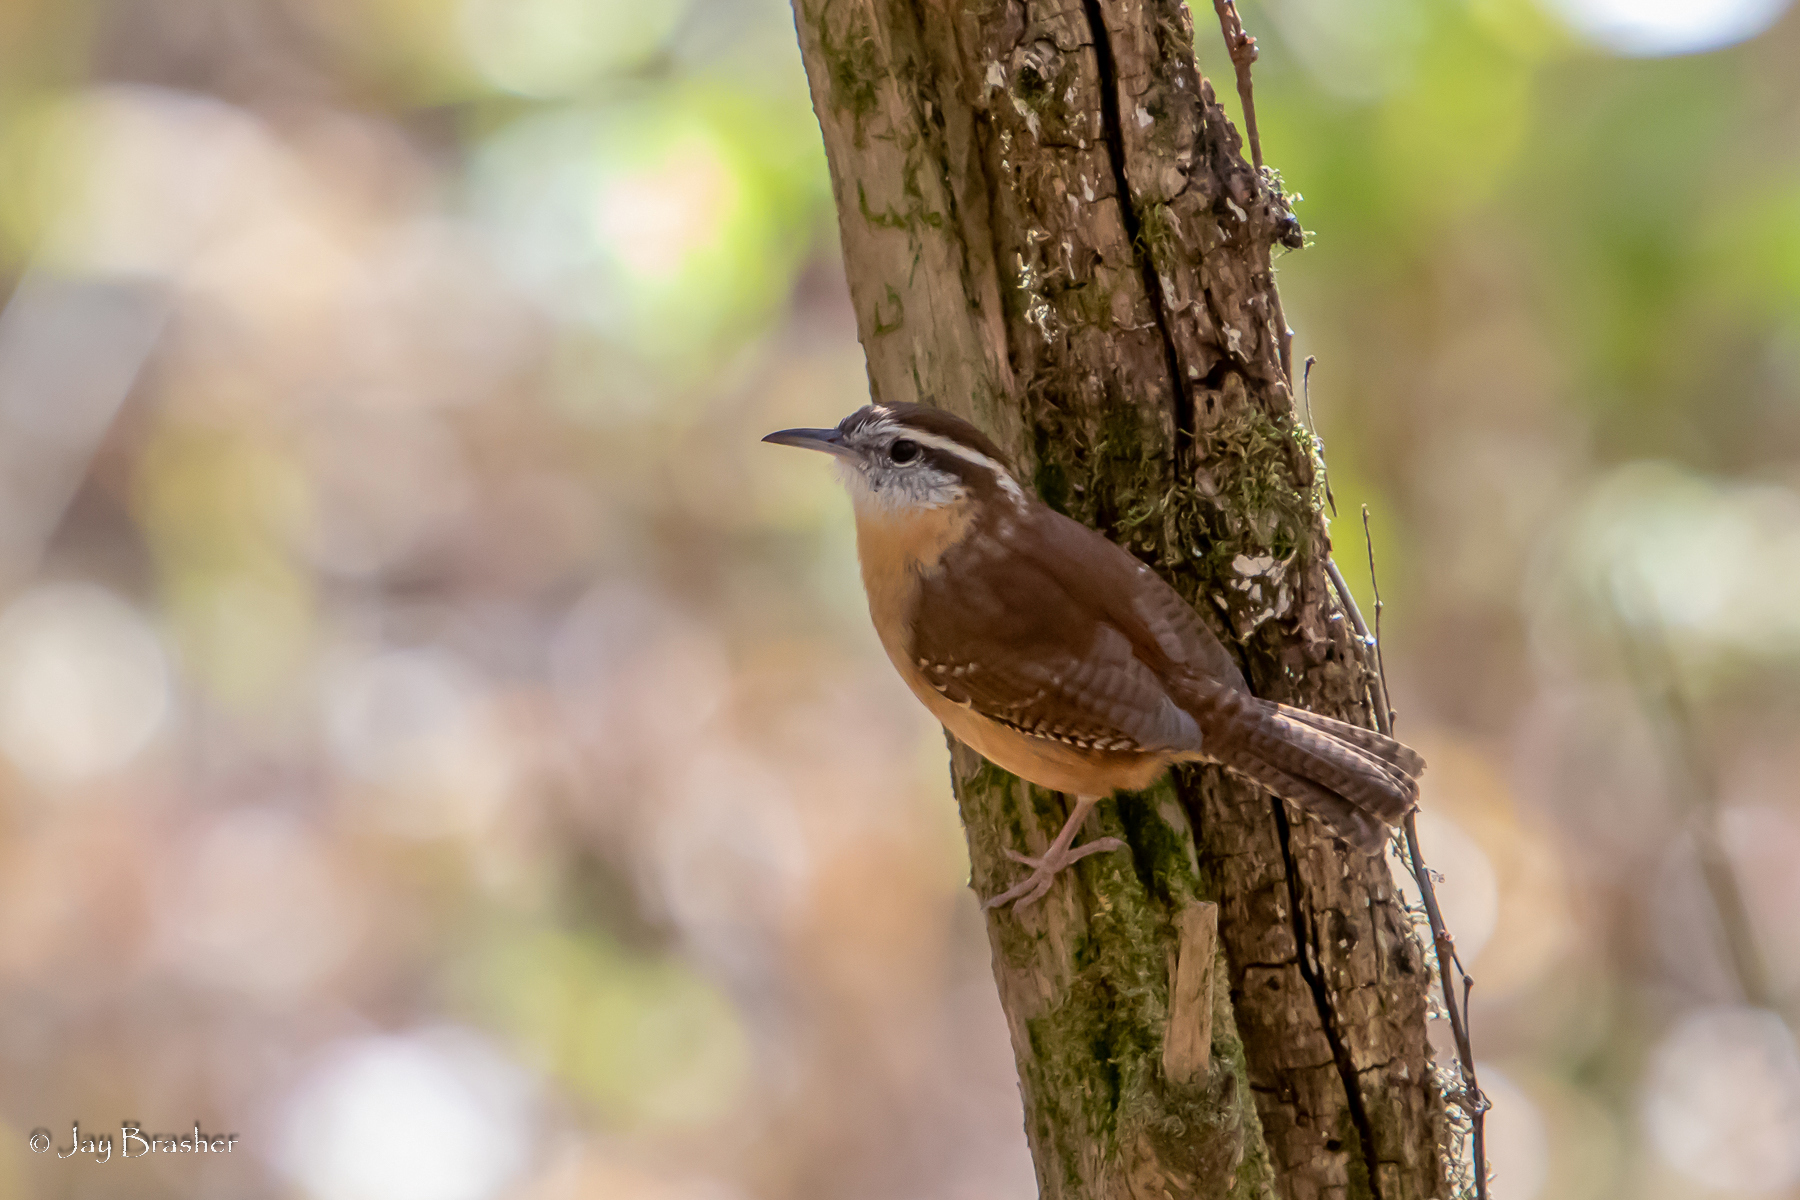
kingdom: Animalia
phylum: Chordata
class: Aves
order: Passeriformes
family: Troglodytidae
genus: Thryothorus
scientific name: Thryothorus ludovicianus
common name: Carolina wren
